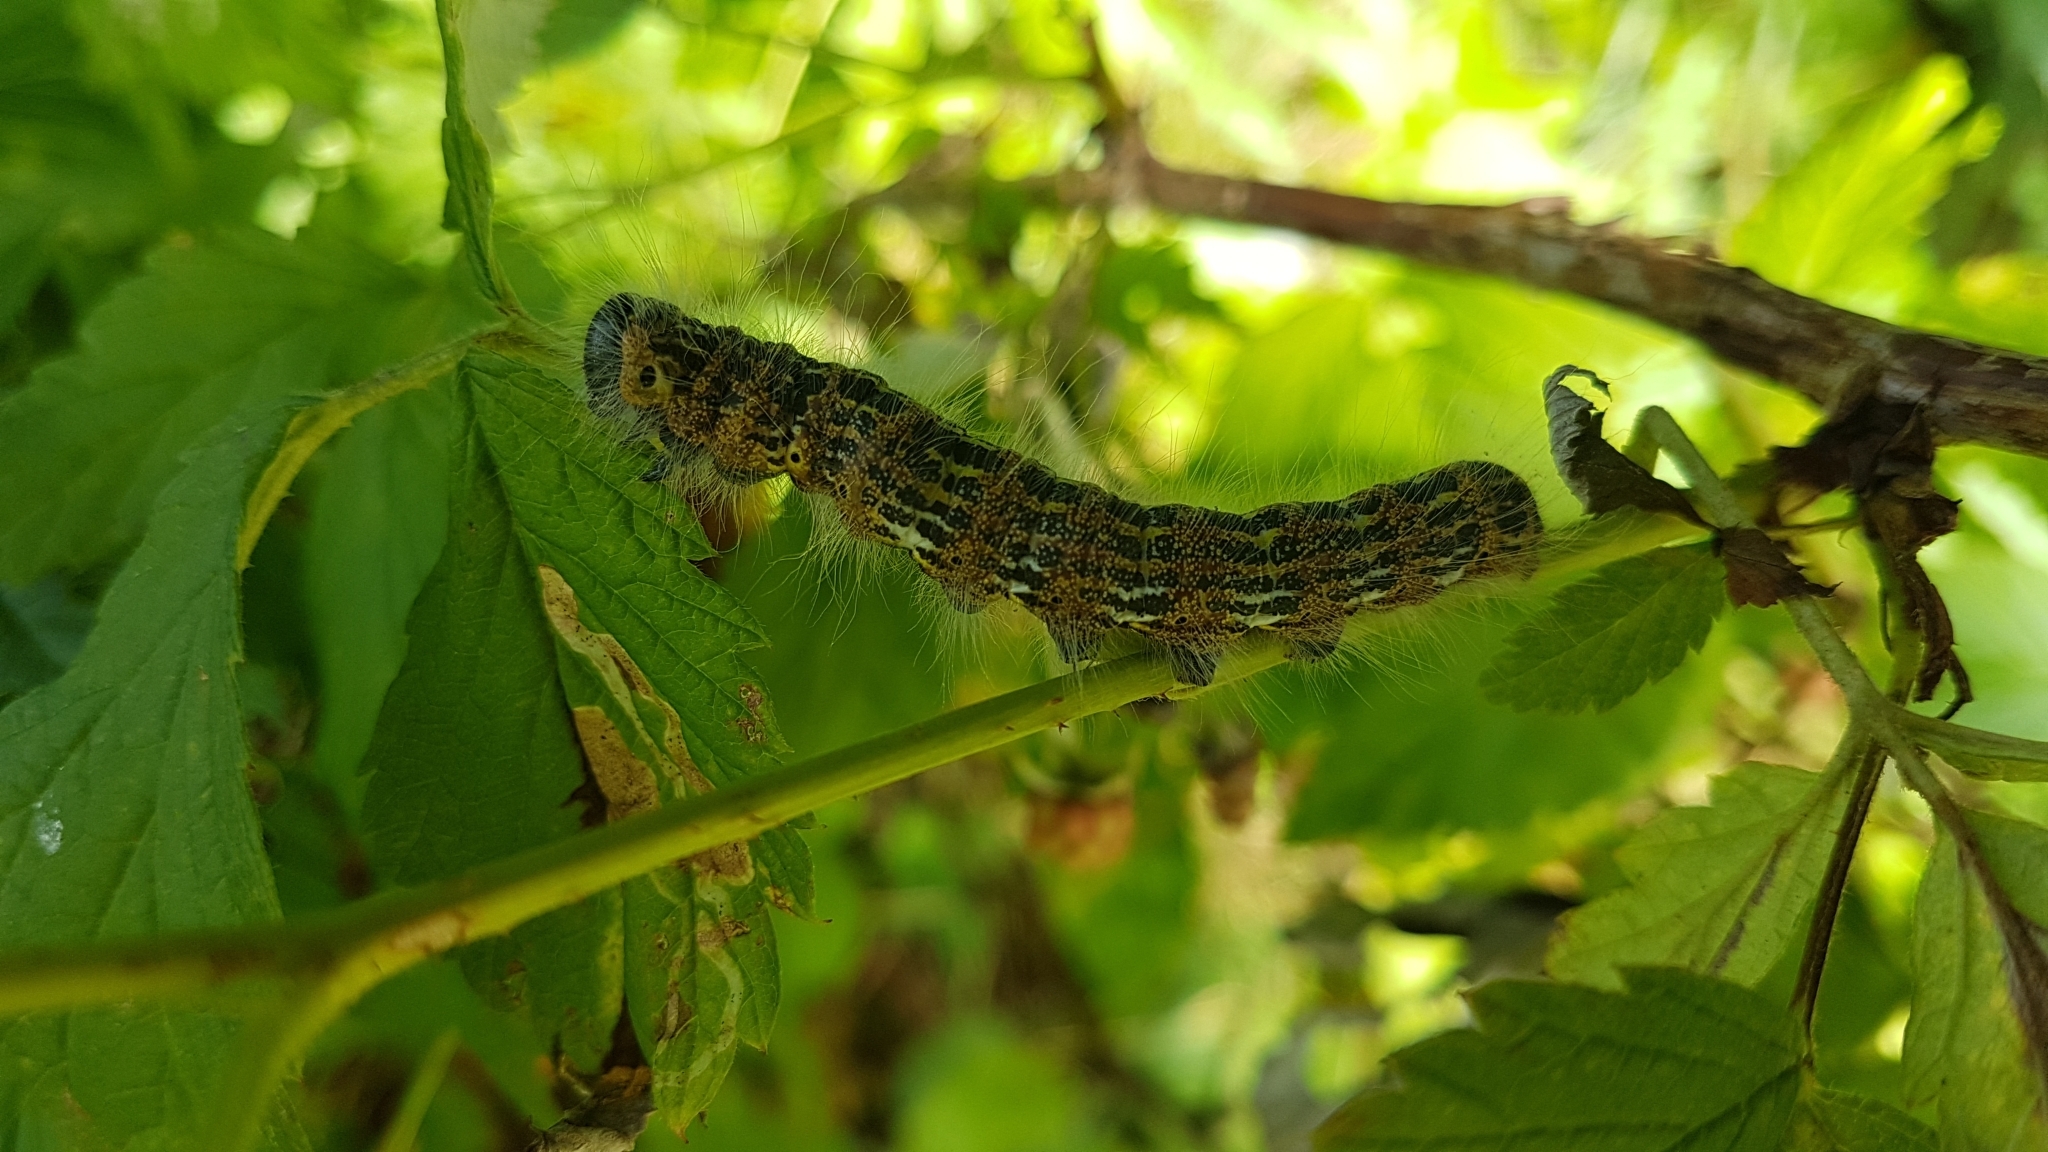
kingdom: Animalia
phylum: Arthropoda
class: Insecta
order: Lepidoptera
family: Notodontidae
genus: Phalera
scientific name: Phalera bucephala
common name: Buff-tip
